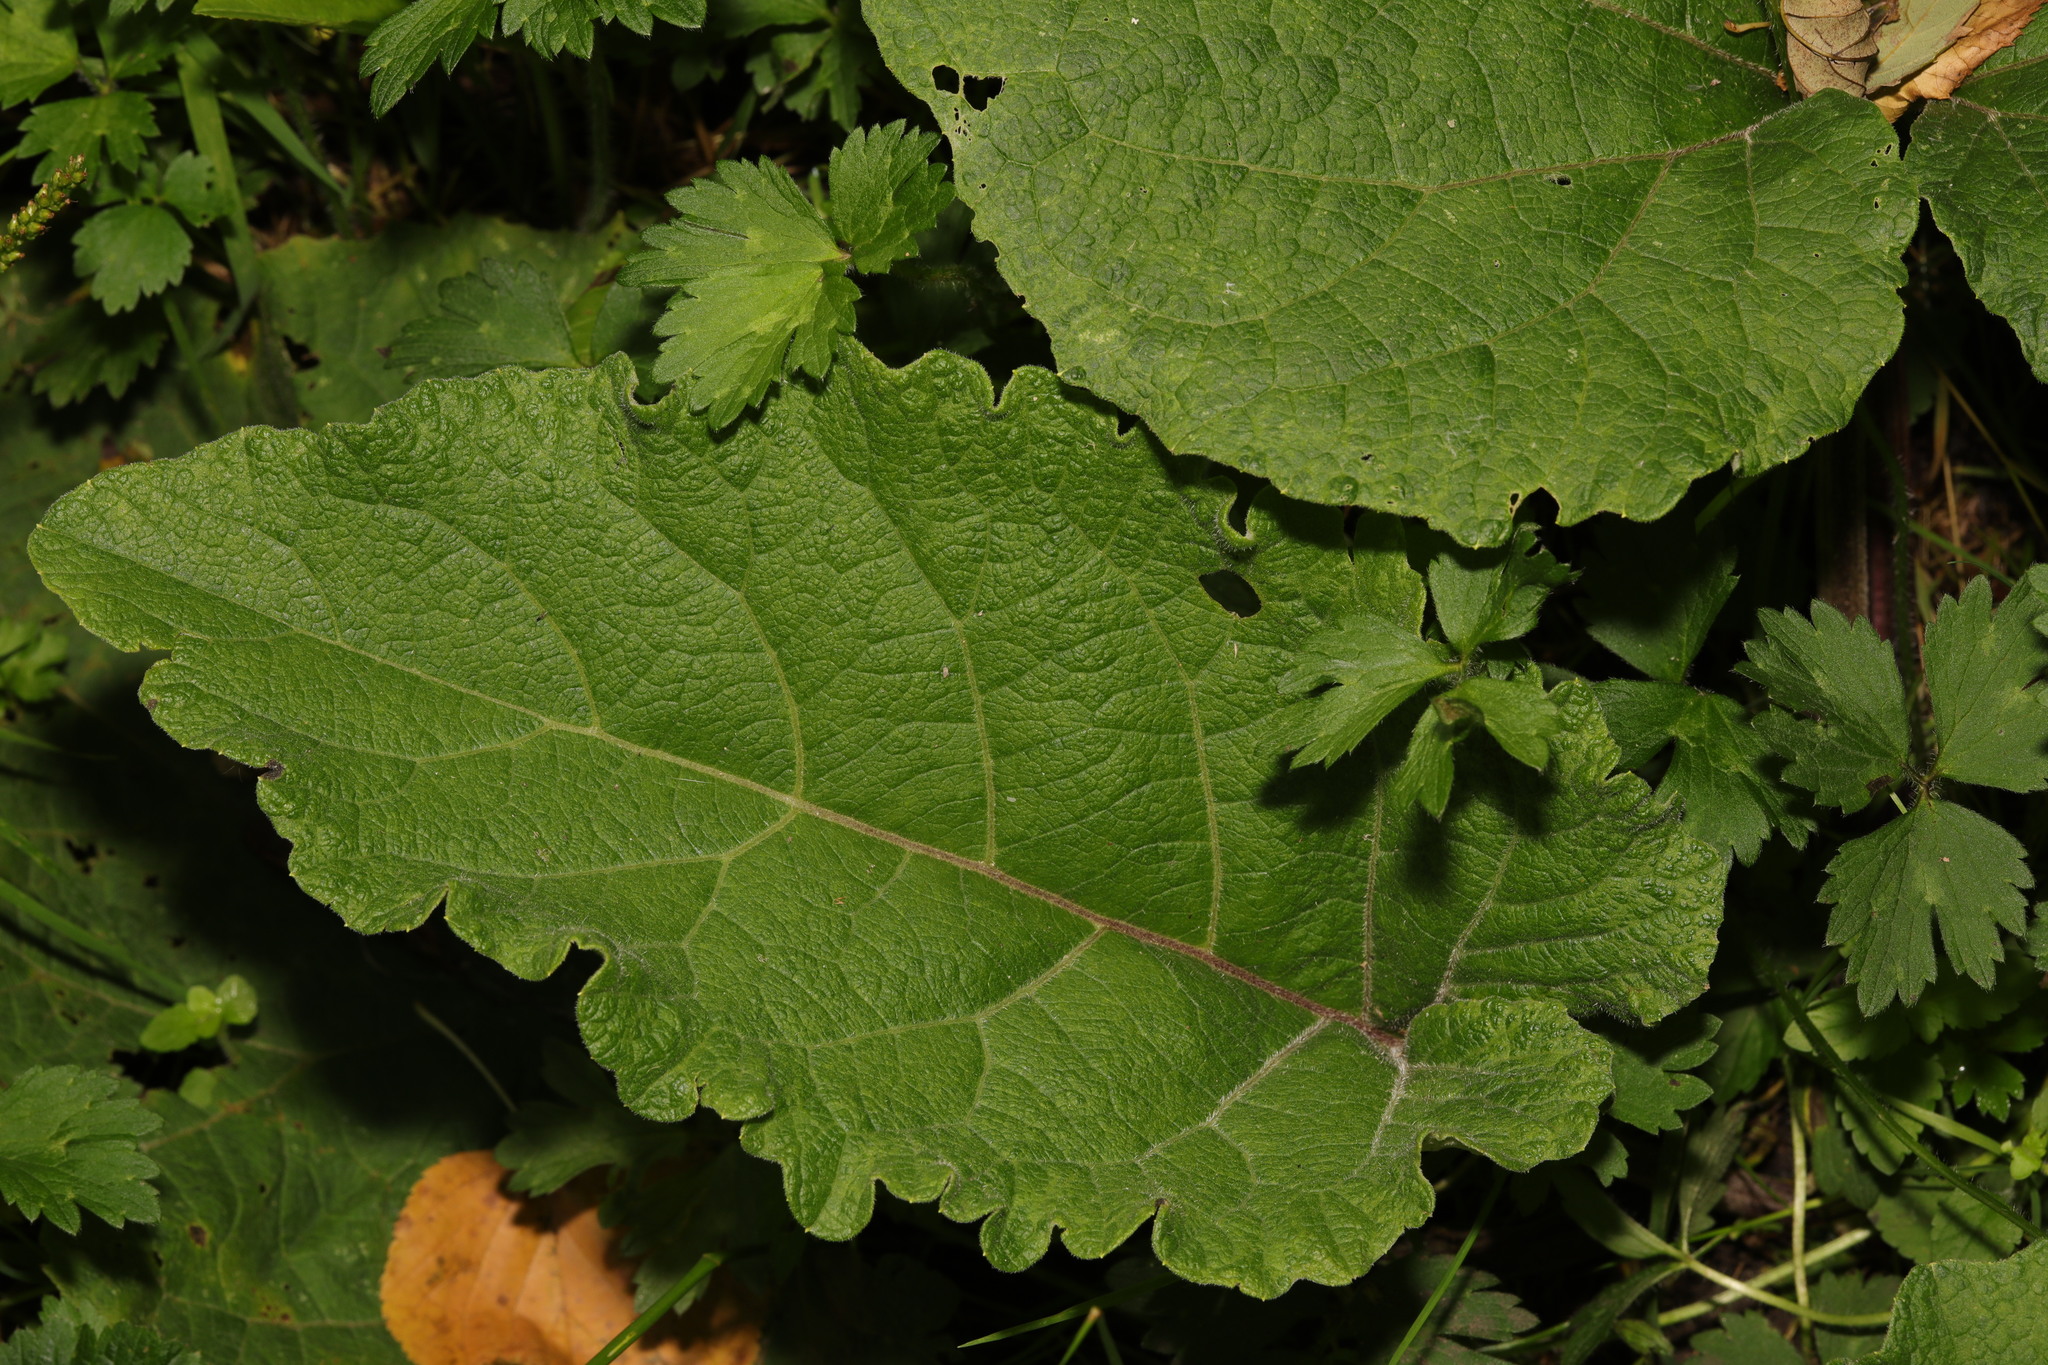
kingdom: Plantae
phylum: Tracheophyta
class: Magnoliopsida
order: Asterales
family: Asteraceae
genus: Arctium
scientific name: Arctium minus
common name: Lesser burdock
